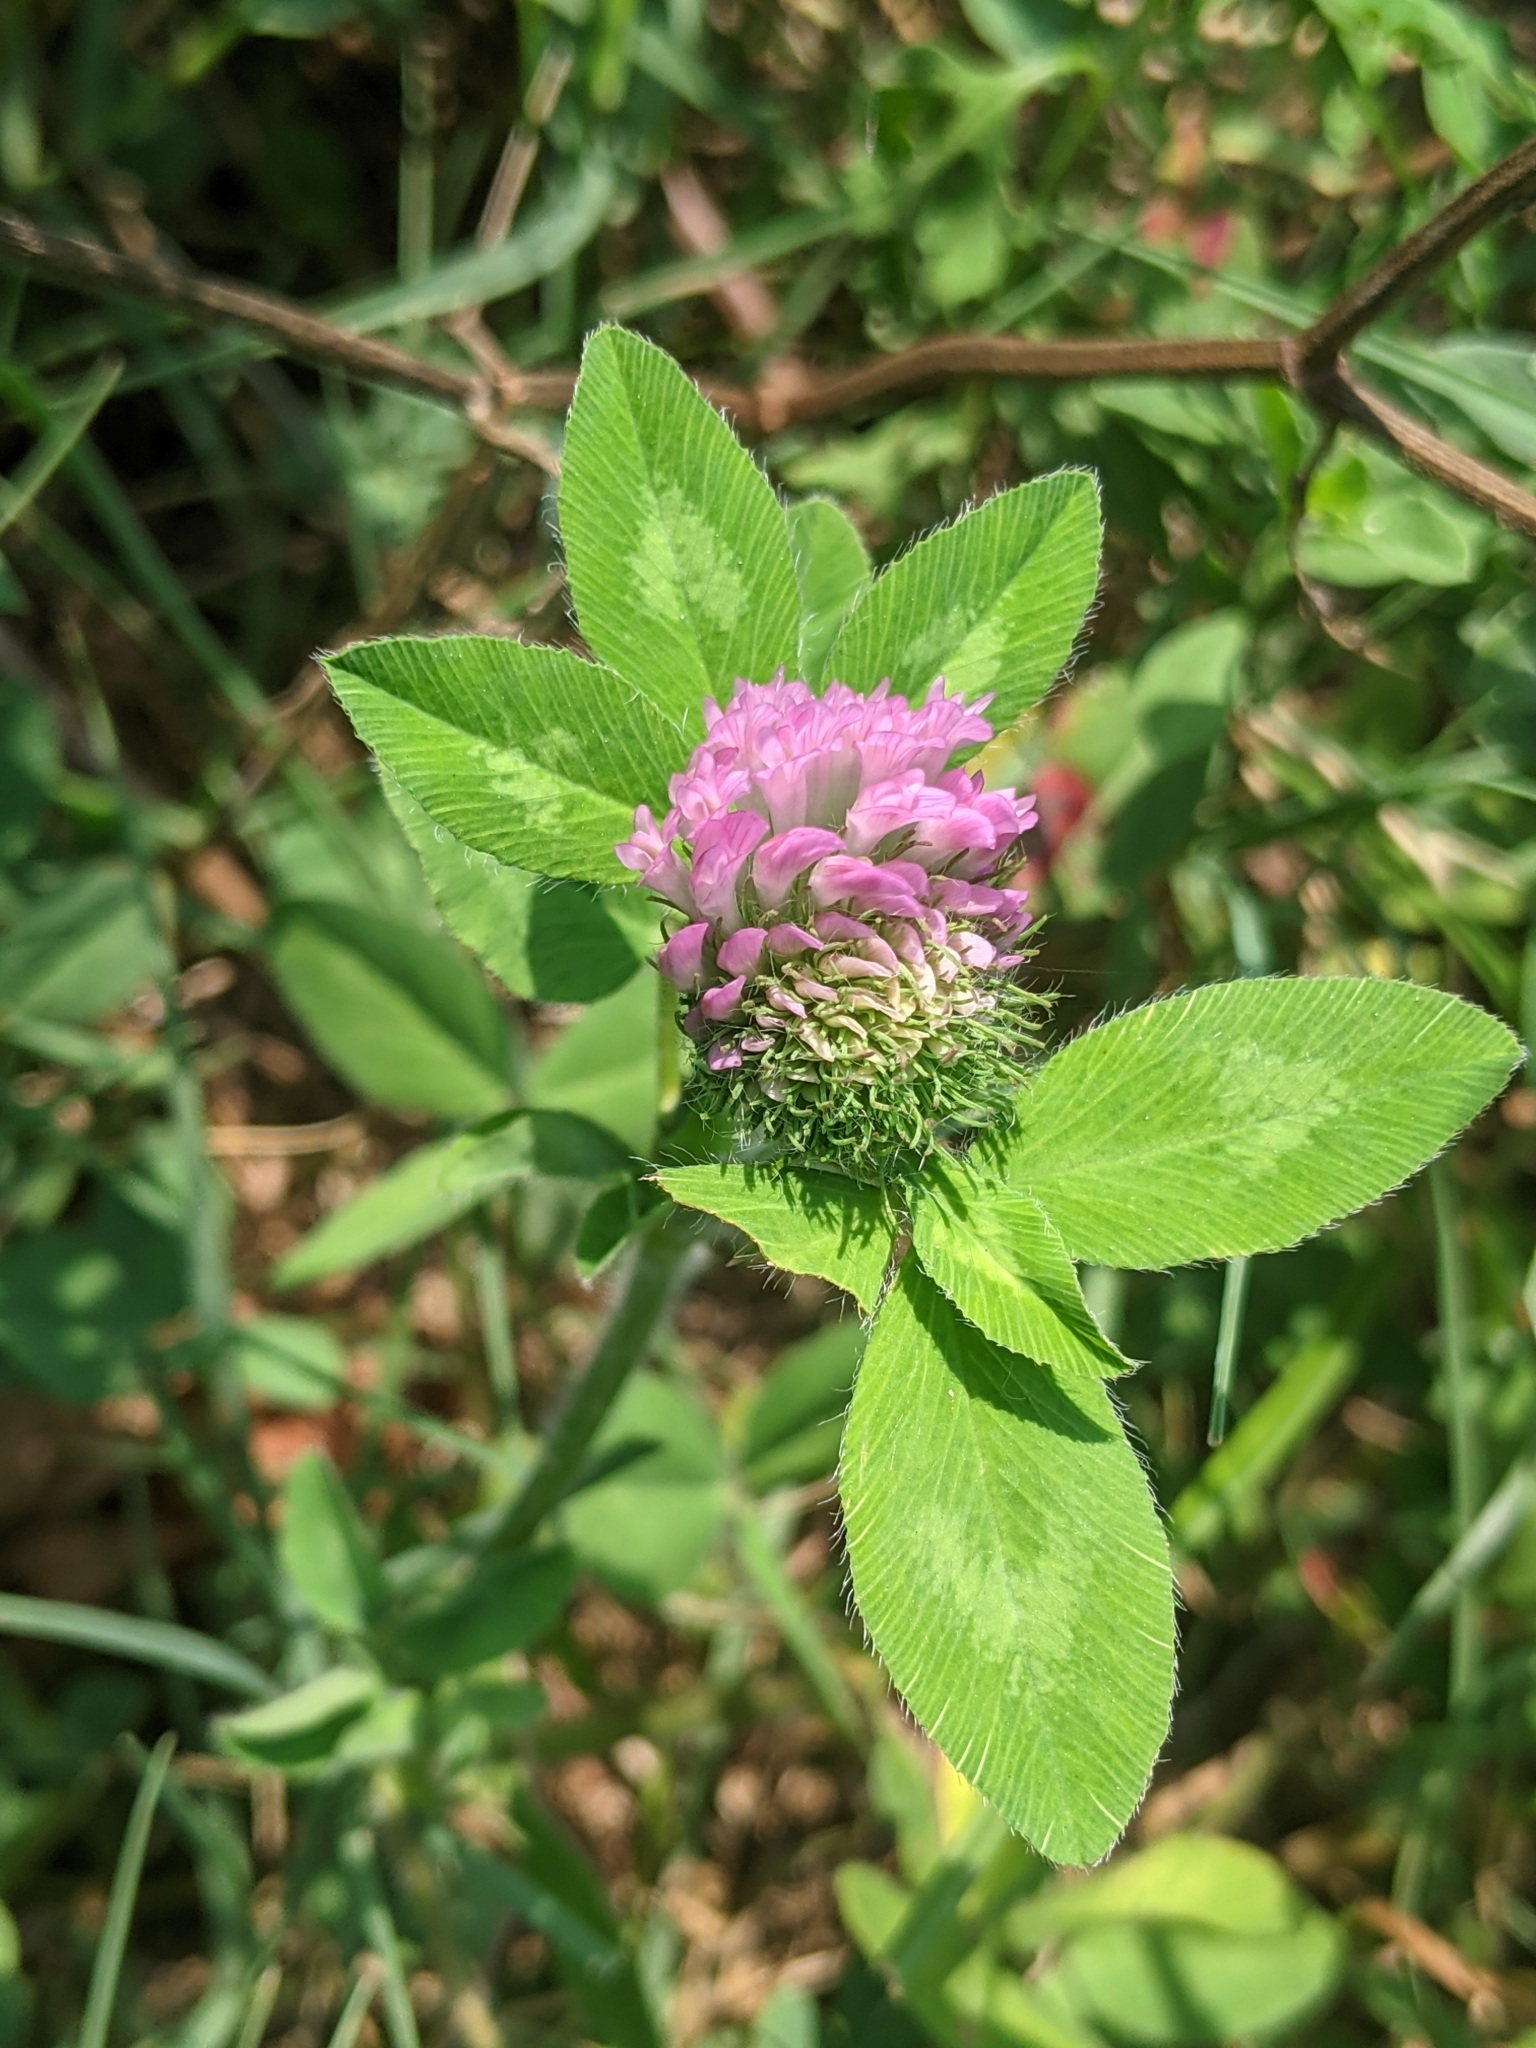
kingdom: Plantae
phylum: Tracheophyta
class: Magnoliopsida
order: Fabales
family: Fabaceae
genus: Trifolium
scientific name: Trifolium pratense
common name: Red clover
